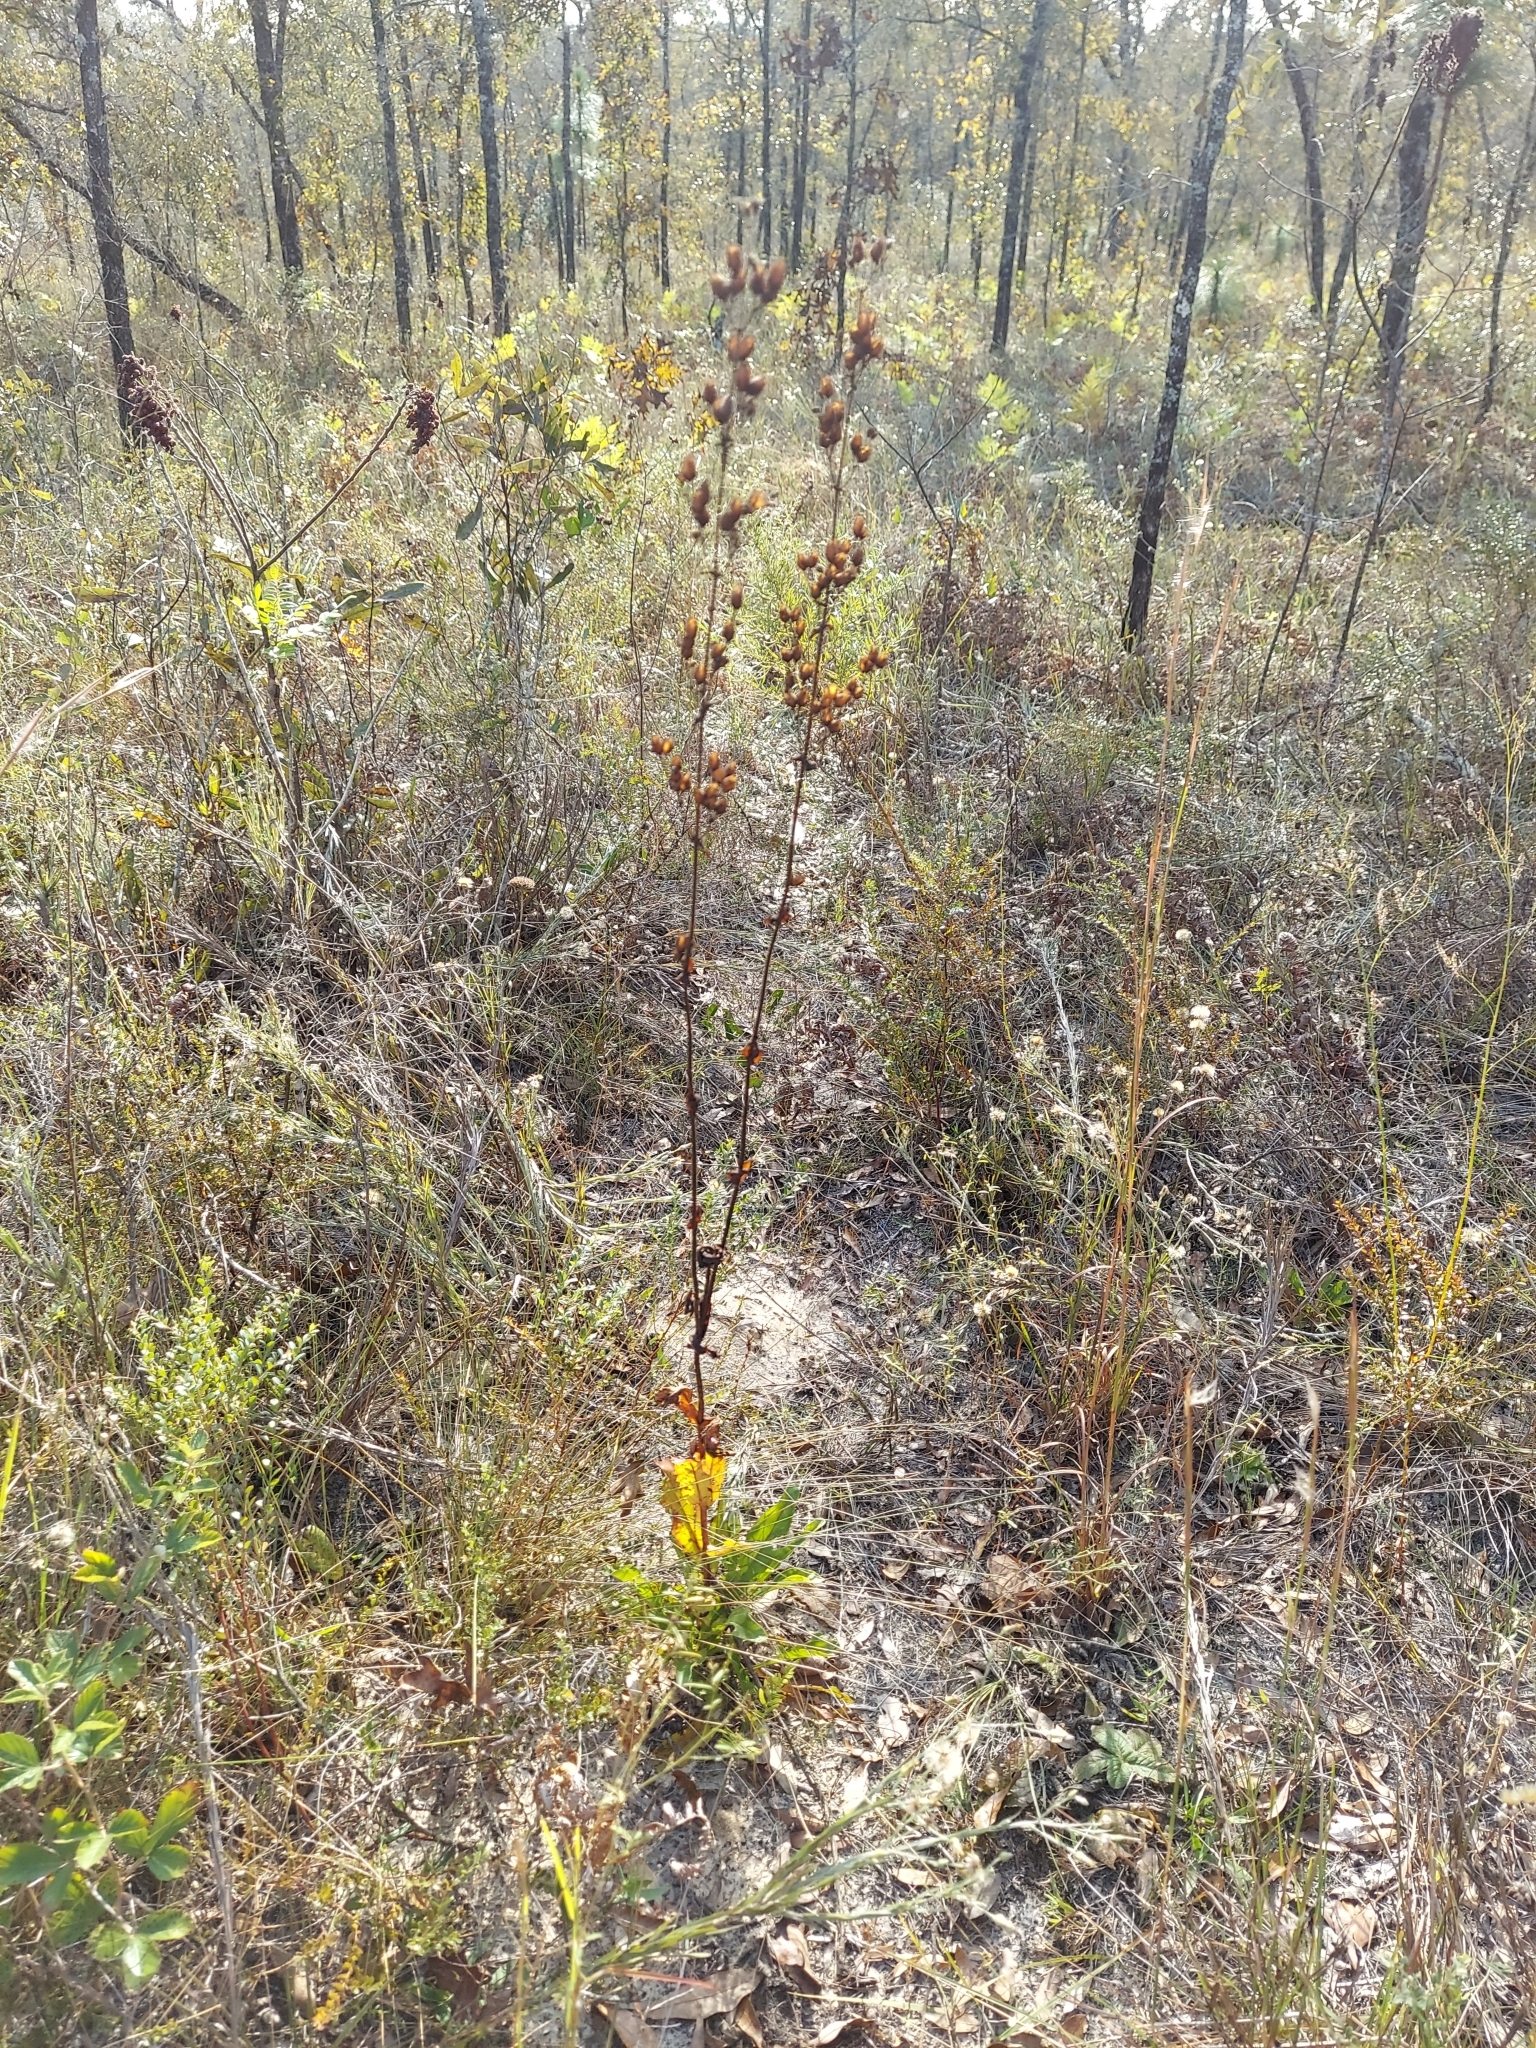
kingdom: Plantae
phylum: Tracheophyta
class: Magnoliopsida
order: Lamiales
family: Plantaginaceae
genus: Penstemon
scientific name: Penstemon multiflorus
